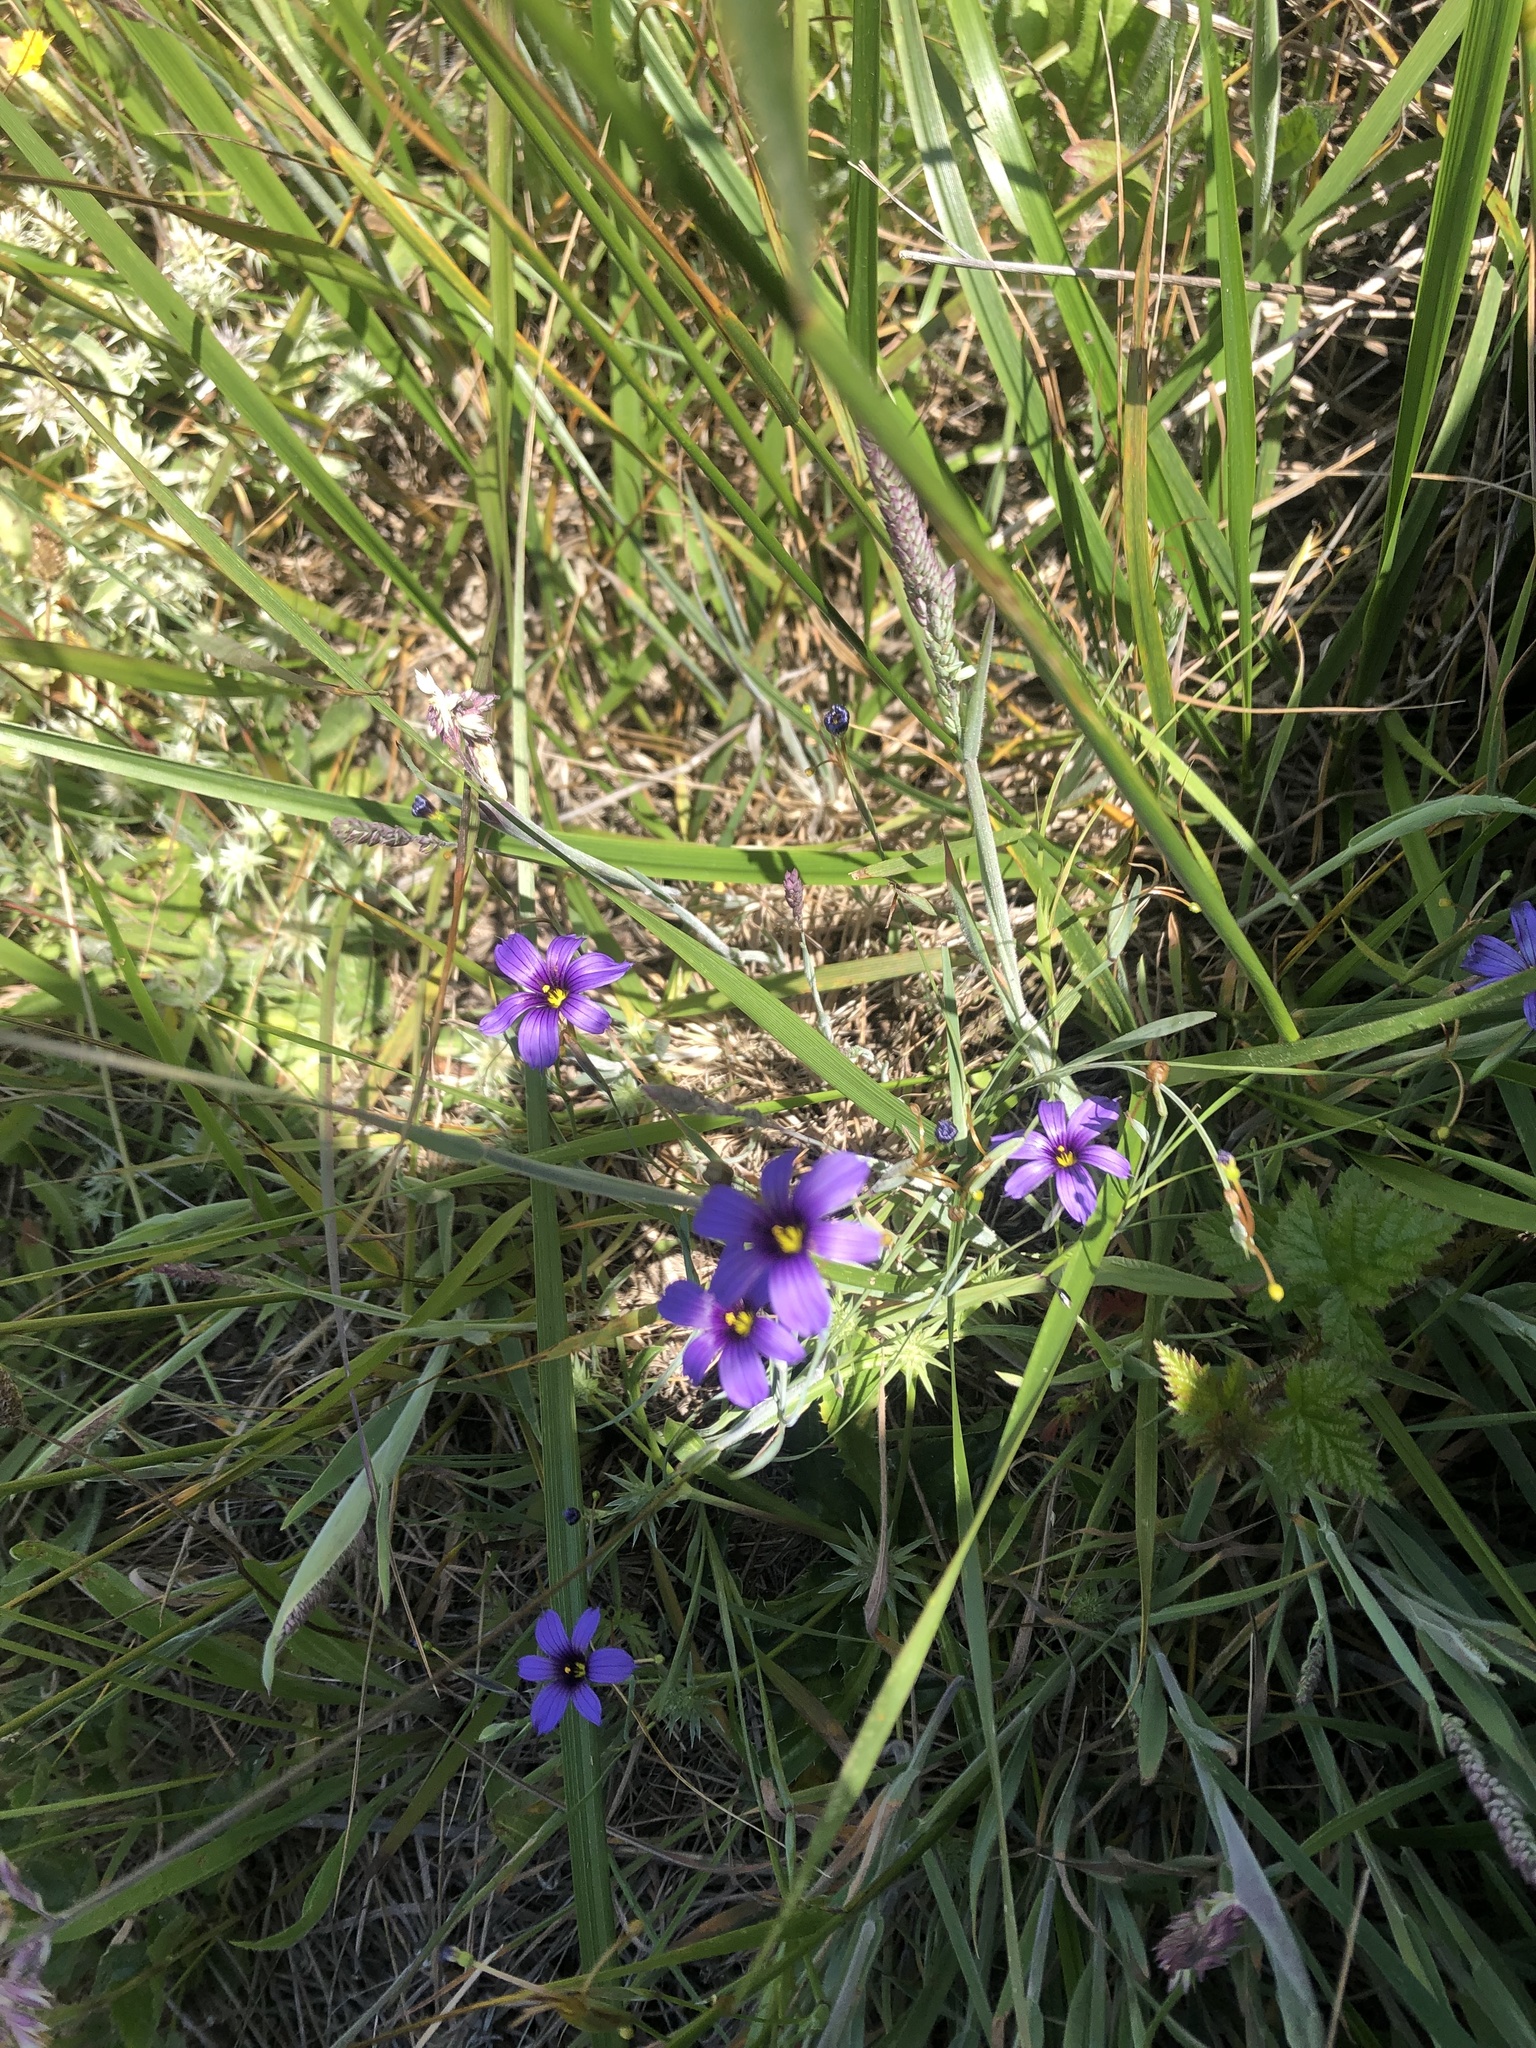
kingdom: Plantae
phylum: Tracheophyta
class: Liliopsida
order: Asparagales
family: Iridaceae
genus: Sisyrinchium
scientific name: Sisyrinchium bellum
